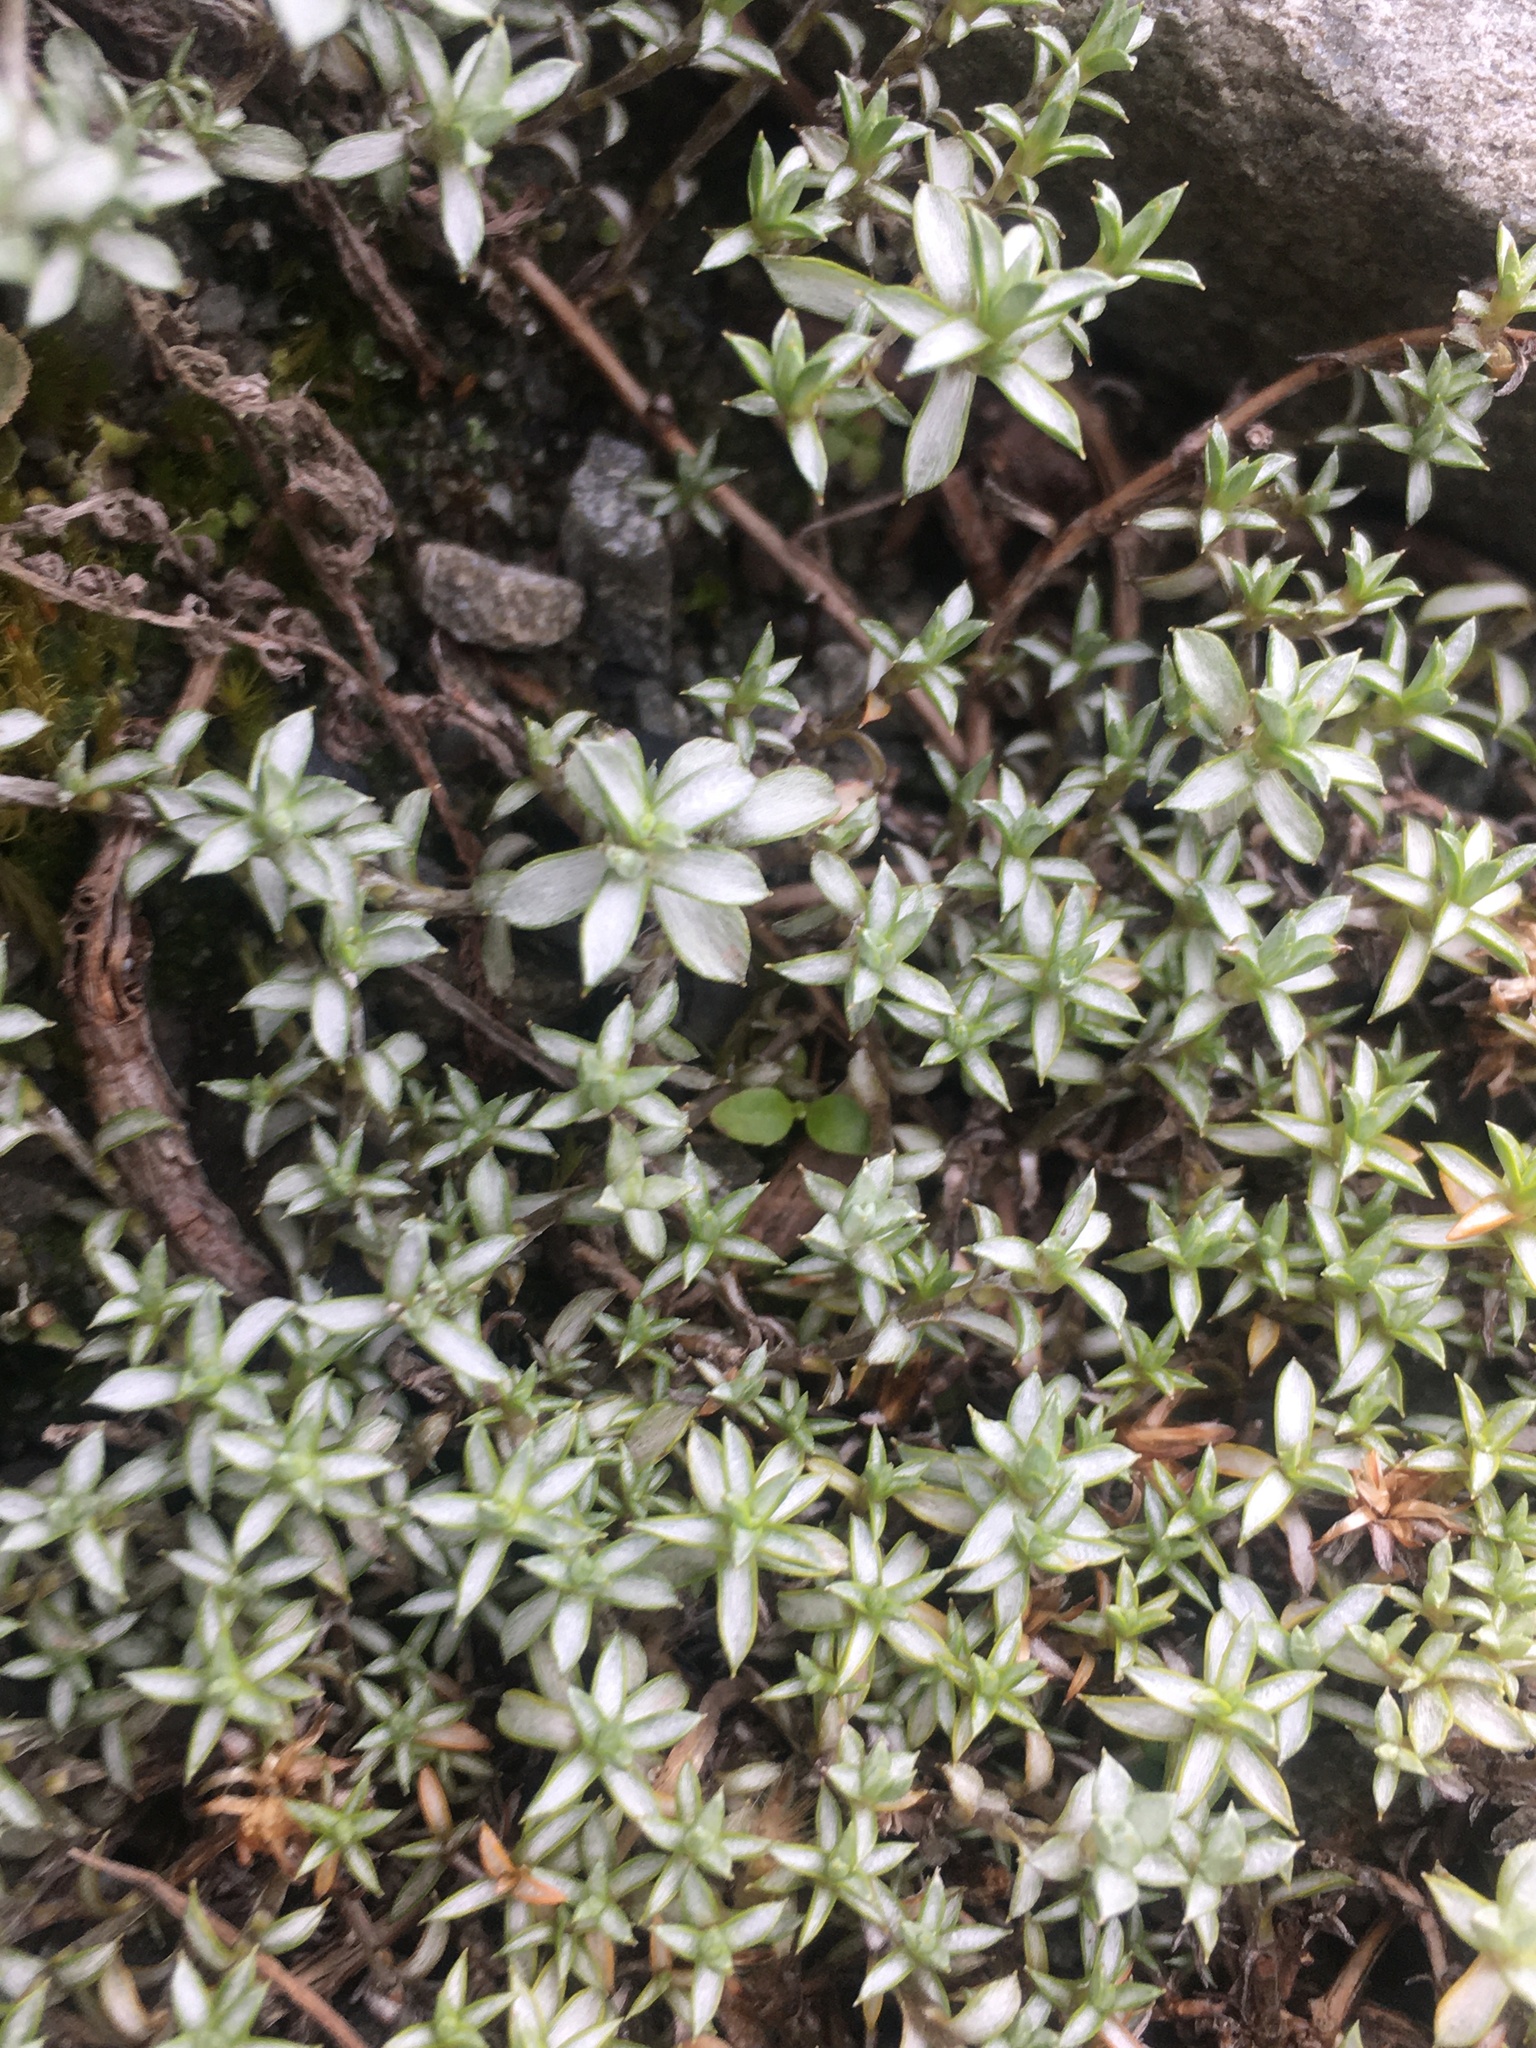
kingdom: Plantae
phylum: Tracheophyta
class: Magnoliopsida
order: Asterales
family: Asteraceae
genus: Raoulia
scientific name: Raoulia tenuicaulis
